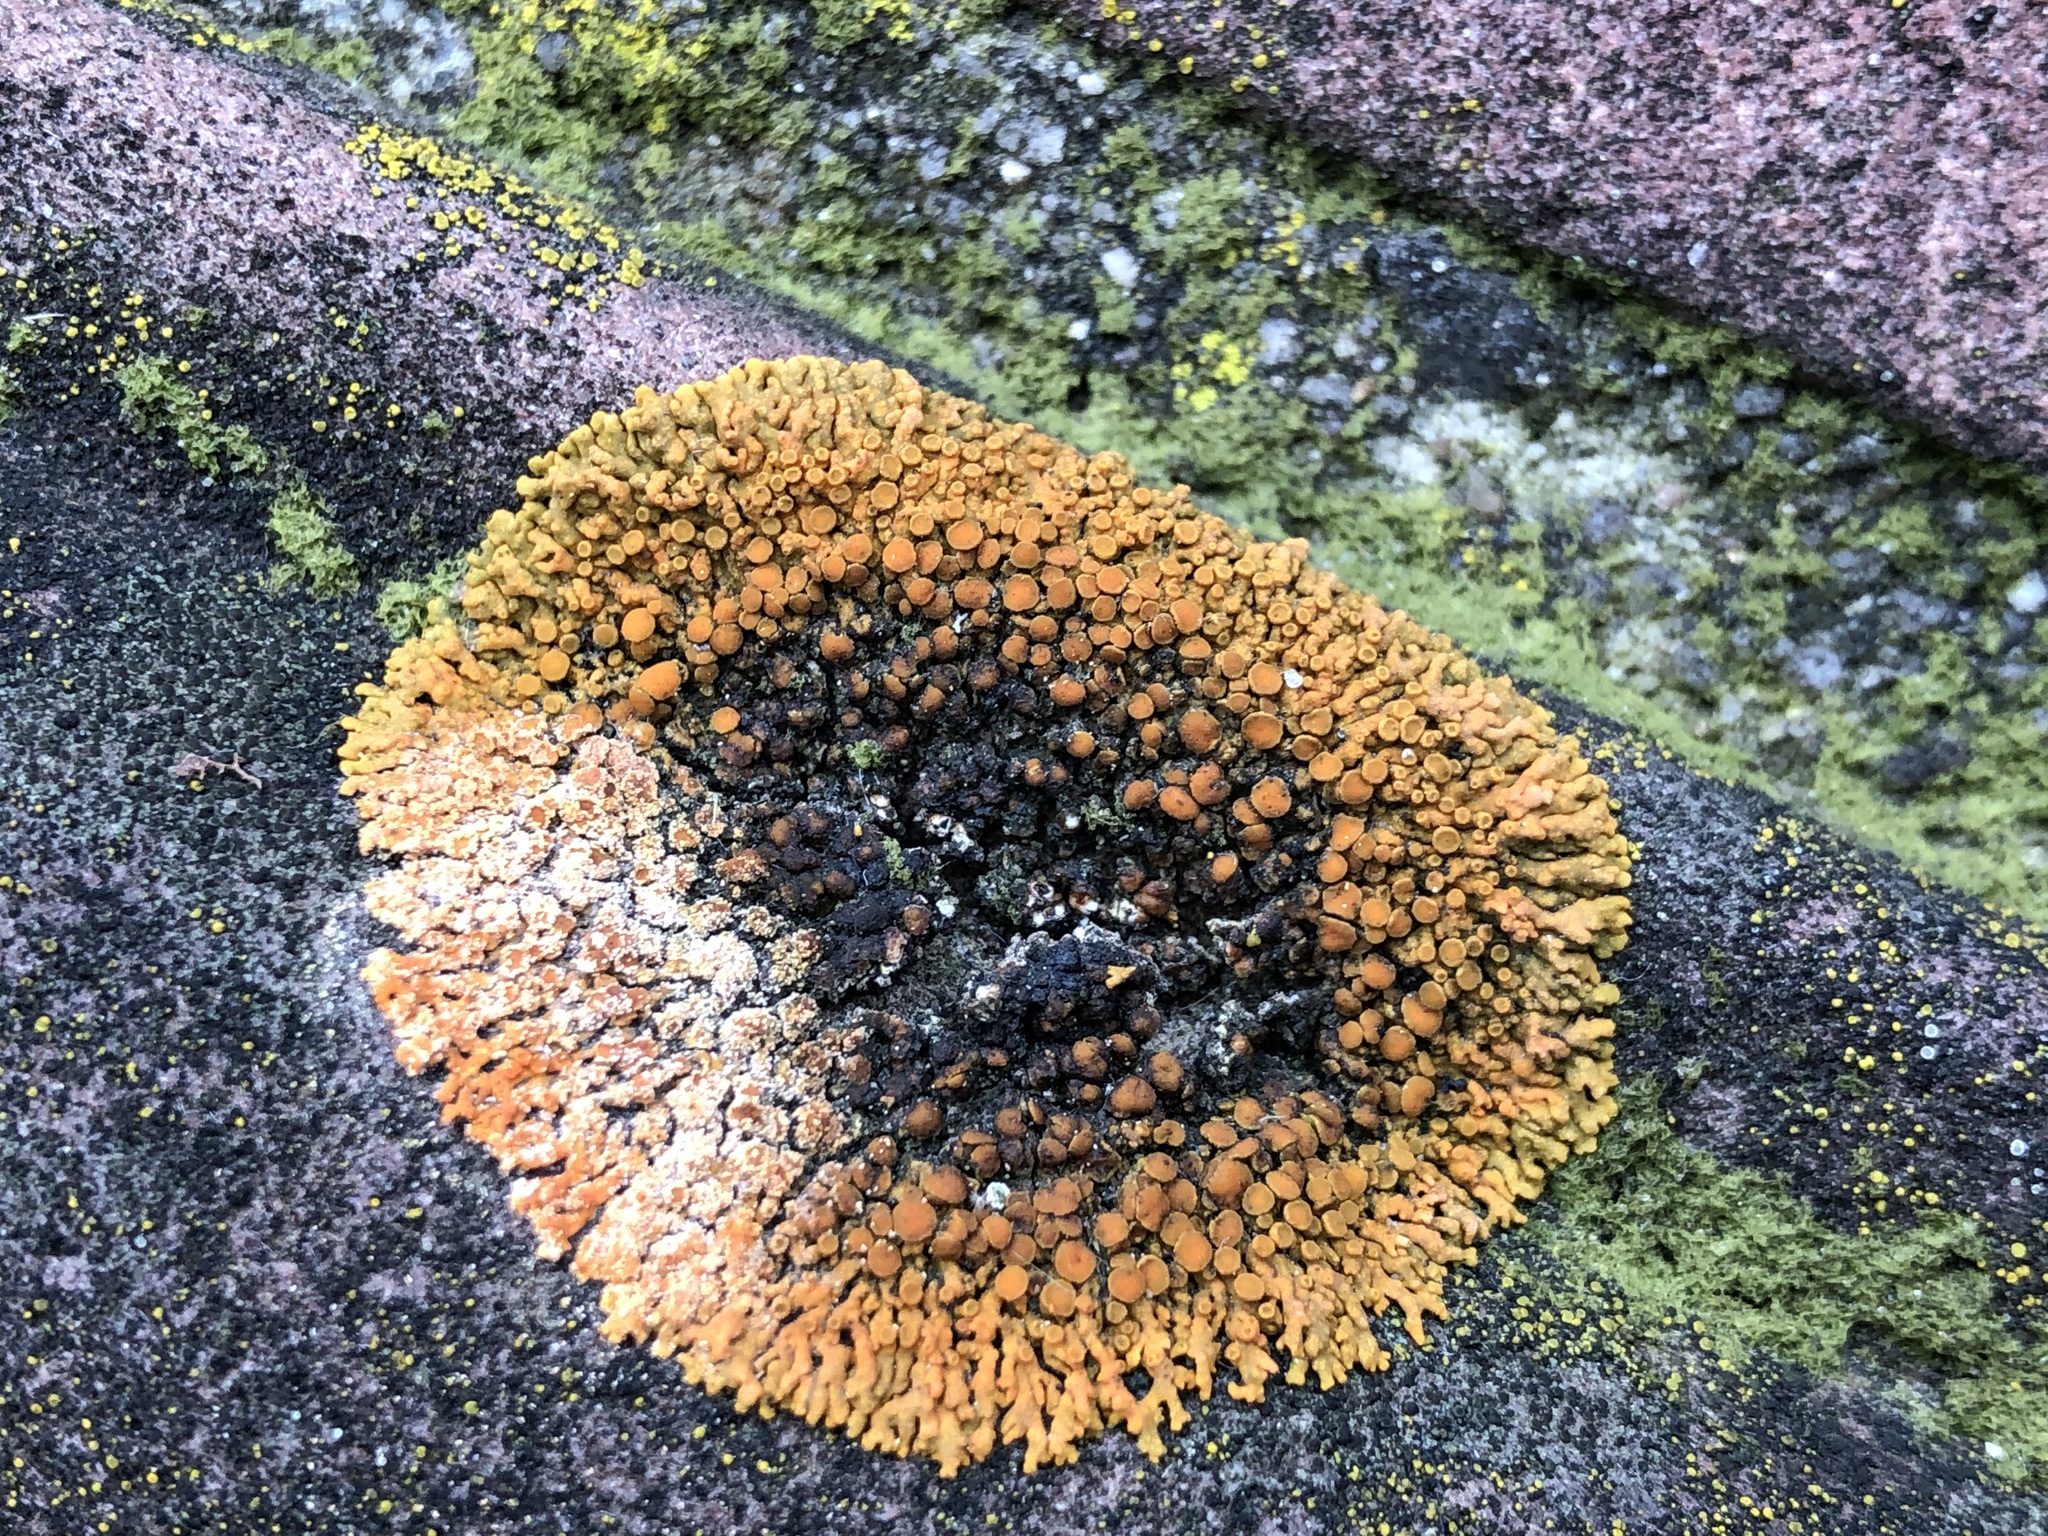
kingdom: Fungi
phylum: Ascomycota
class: Lecanoromycetes
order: Teloschistales
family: Teloschistaceae
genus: Xanthoria
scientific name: Xanthoria elegans
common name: Elegant sunburst lichen
